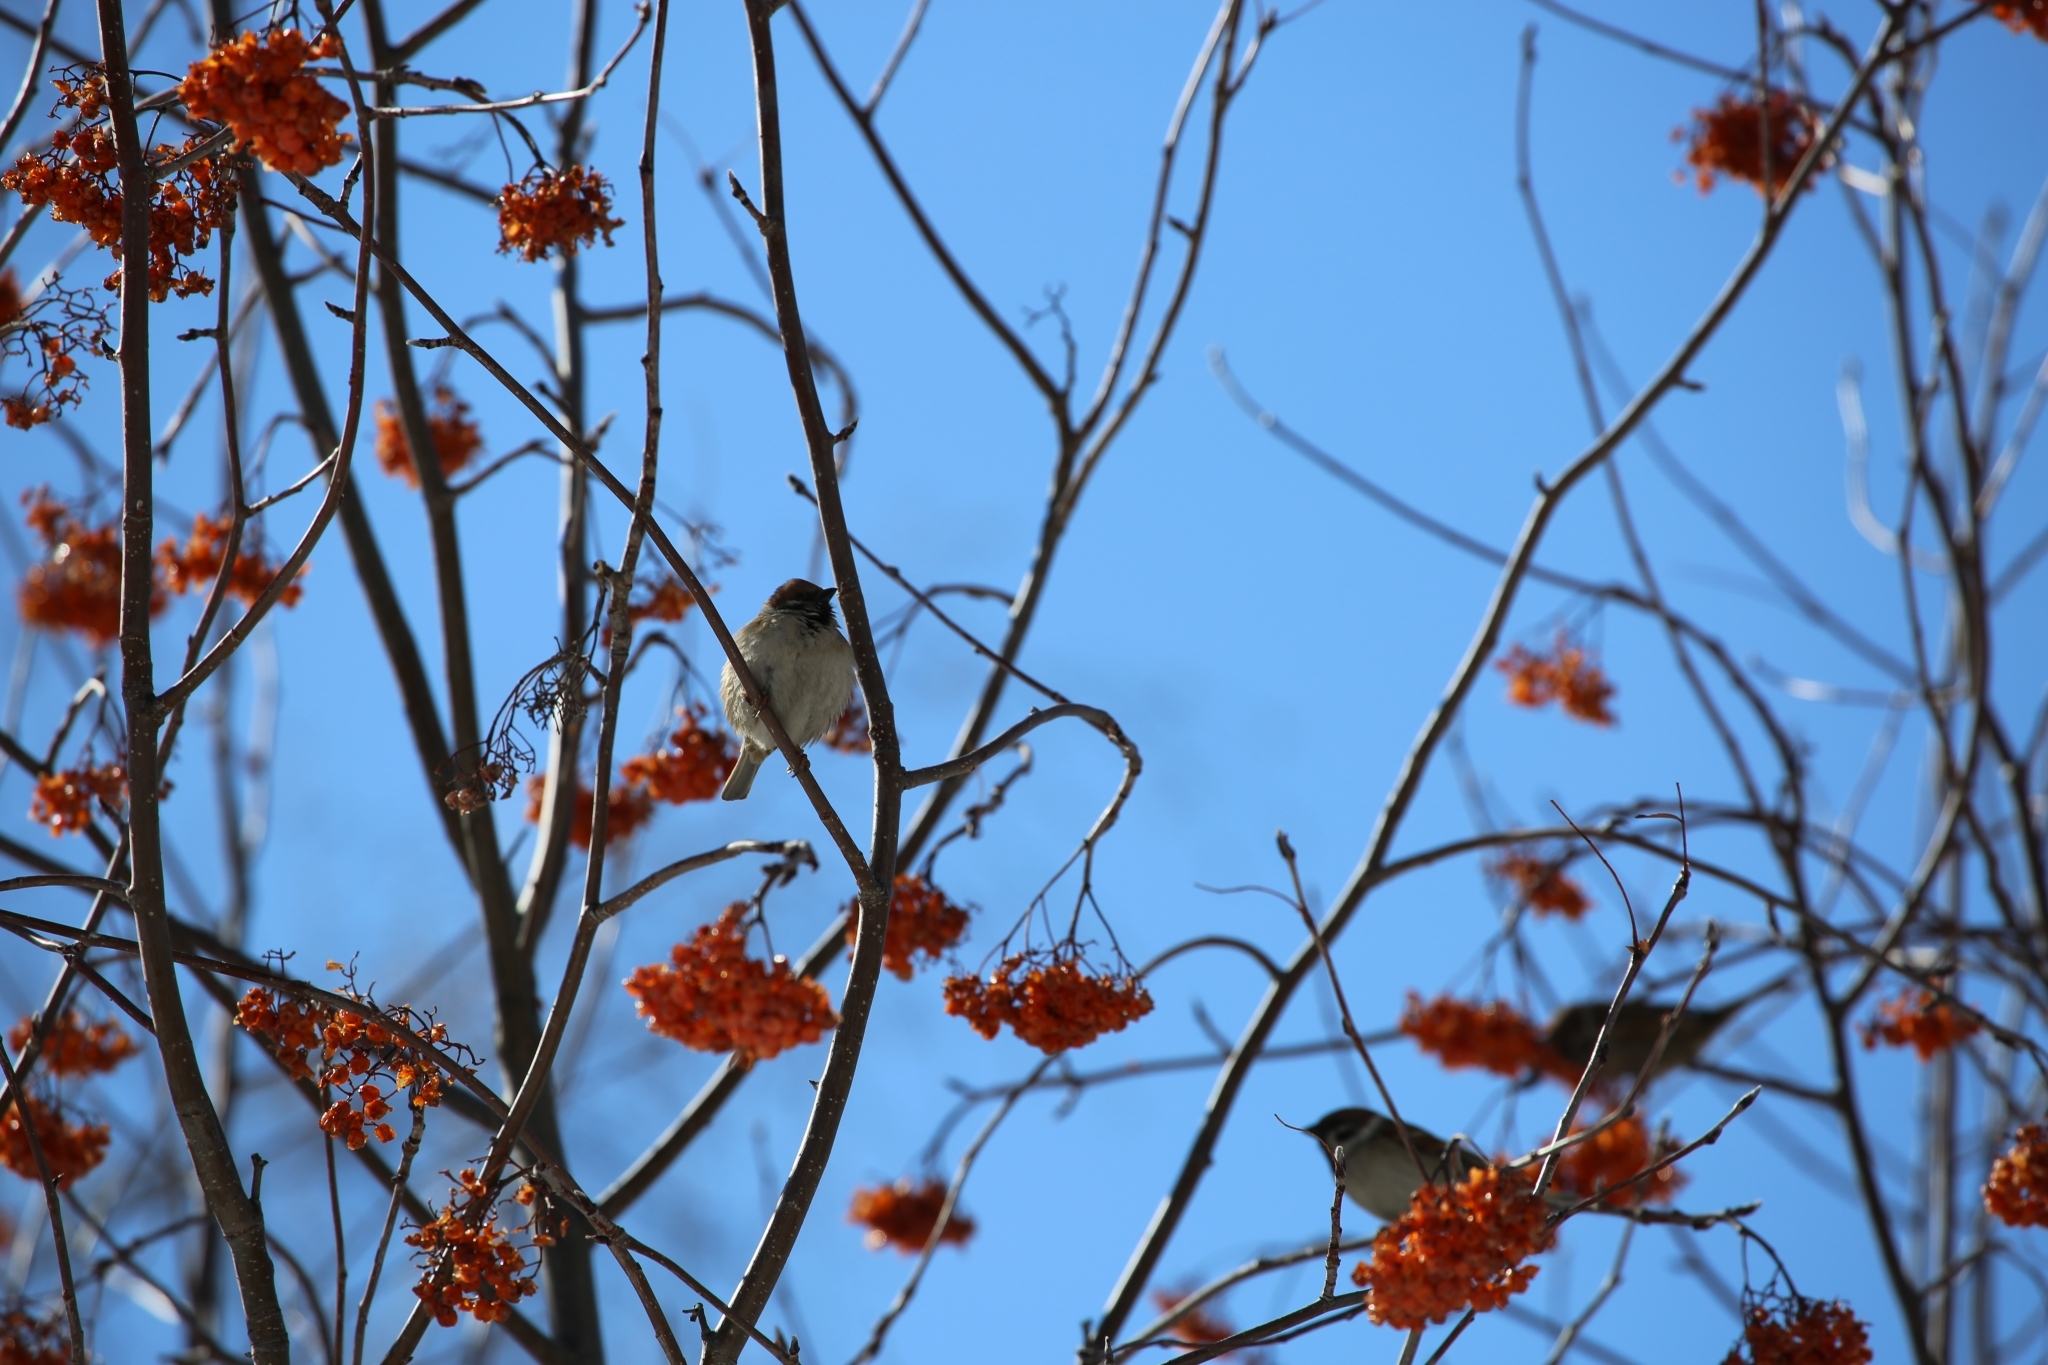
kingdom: Animalia
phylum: Chordata
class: Aves
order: Passeriformes
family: Passeridae
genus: Passer
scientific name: Passer montanus
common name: Eurasian tree sparrow
